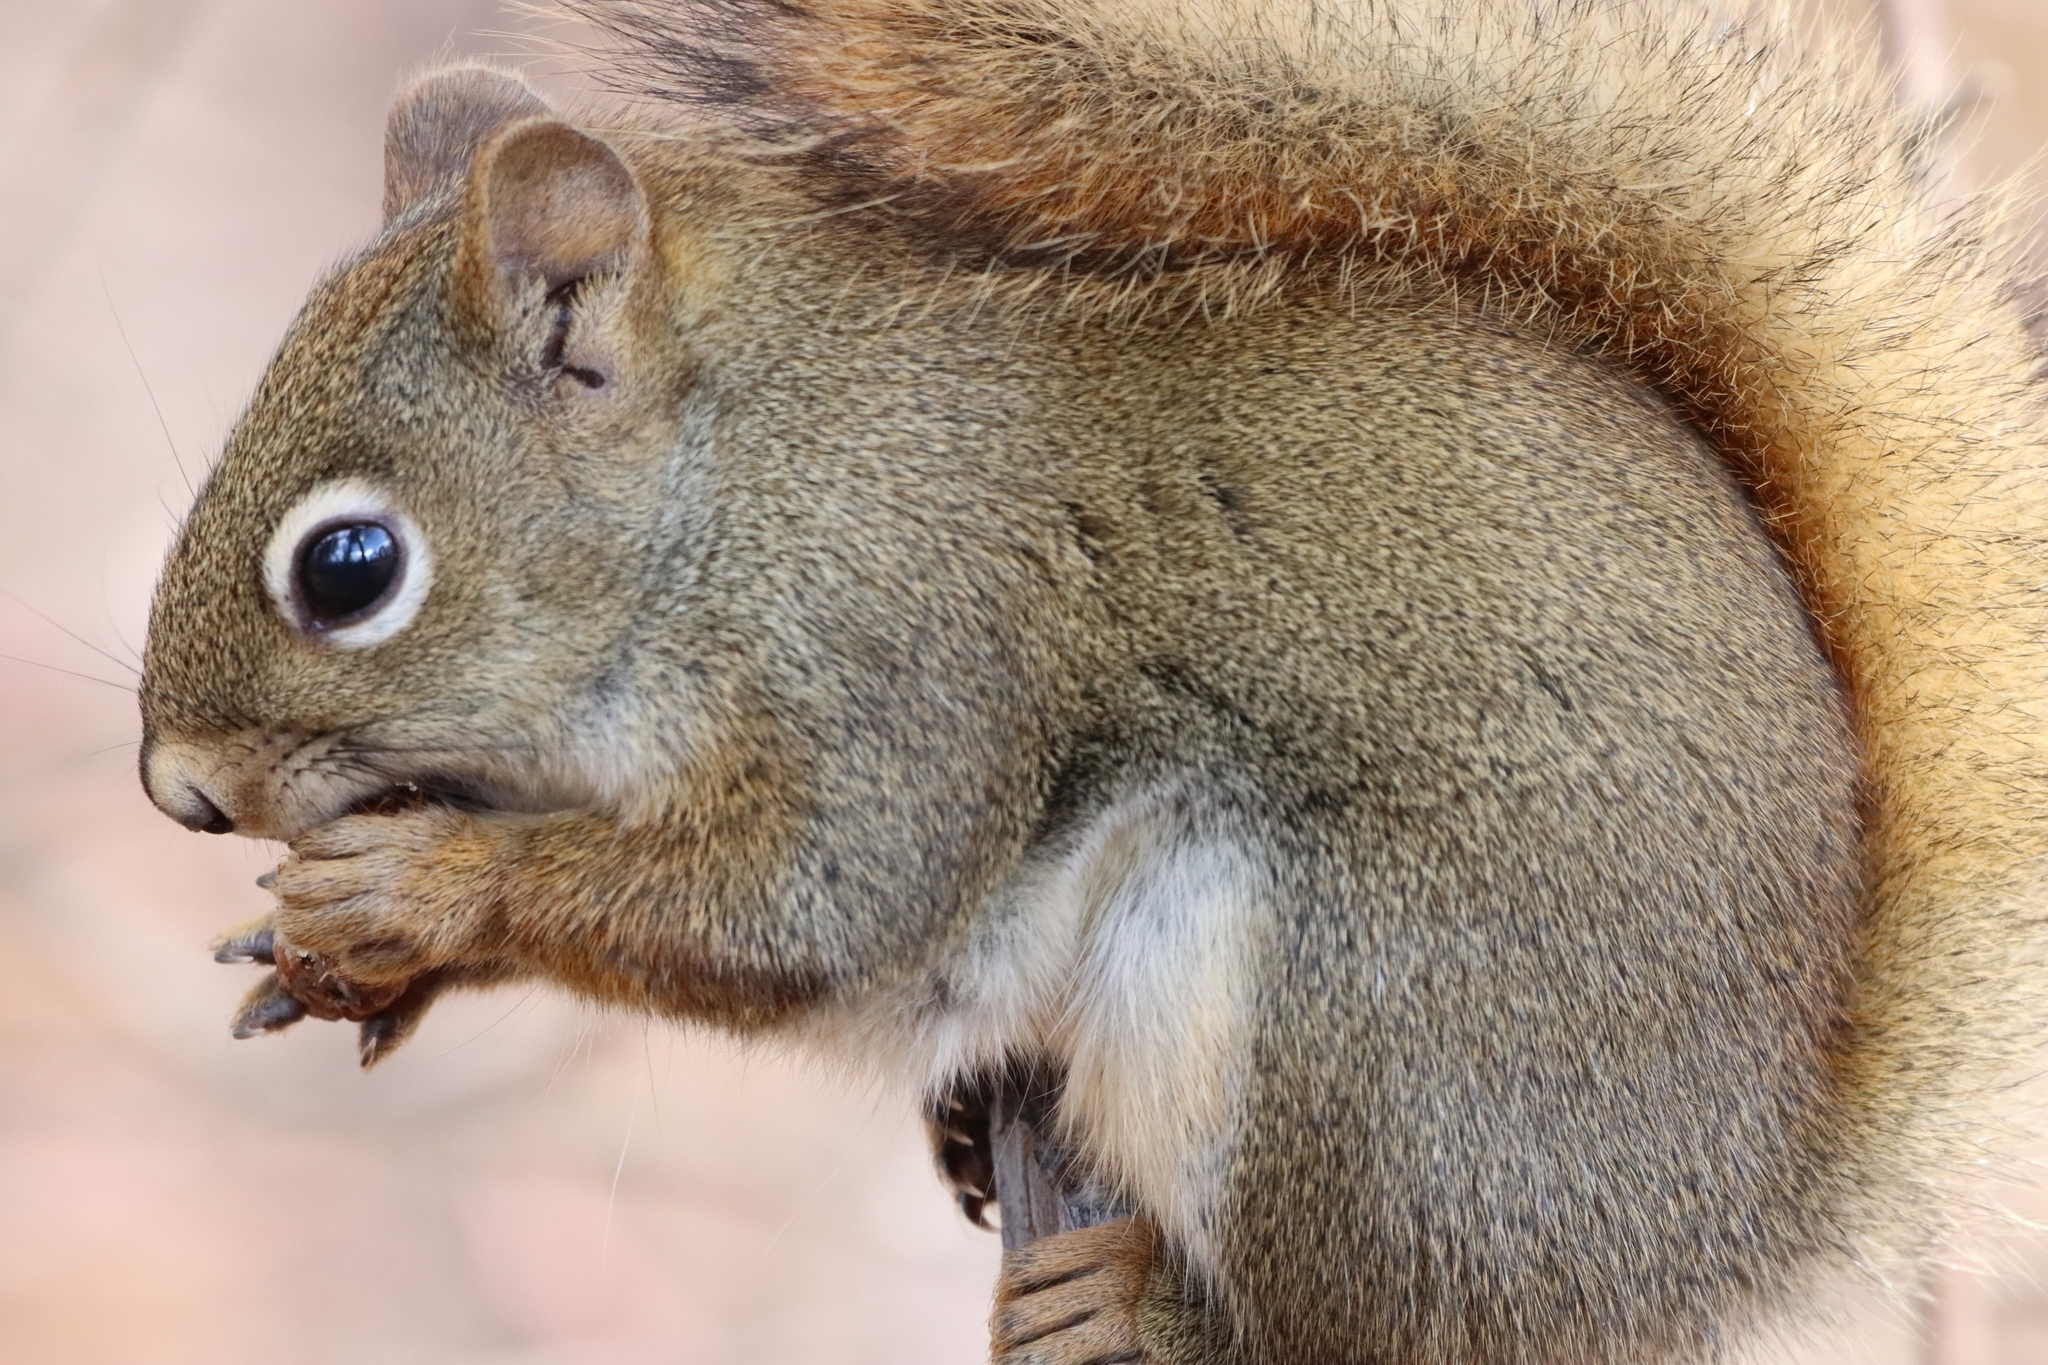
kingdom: Animalia
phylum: Chordata
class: Mammalia
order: Rodentia
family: Sciuridae
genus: Tamiasciurus
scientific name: Tamiasciurus hudsonicus
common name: Red squirrel
